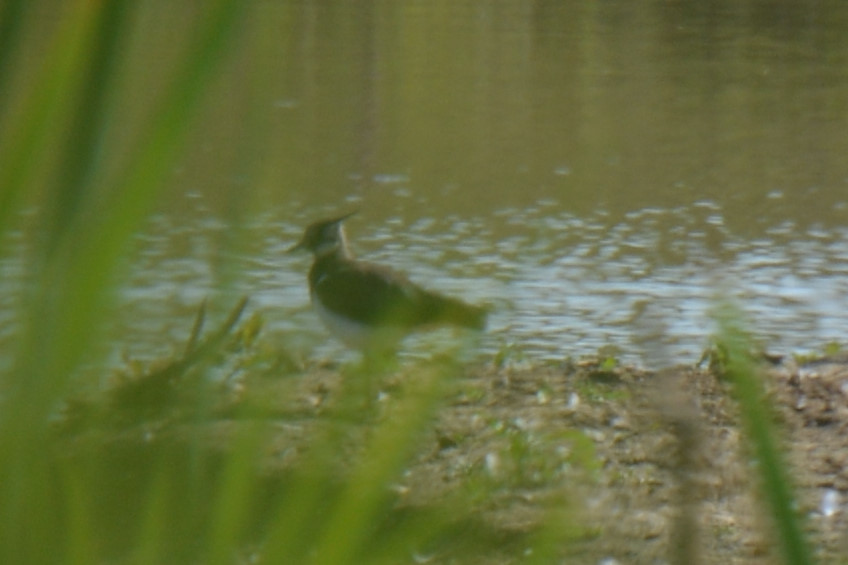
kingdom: Animalia
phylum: Chordata
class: Aves
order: Charadriiformes
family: Charadriidae
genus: Vanellus
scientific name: Vanellus vanellus
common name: Northern lapwing
